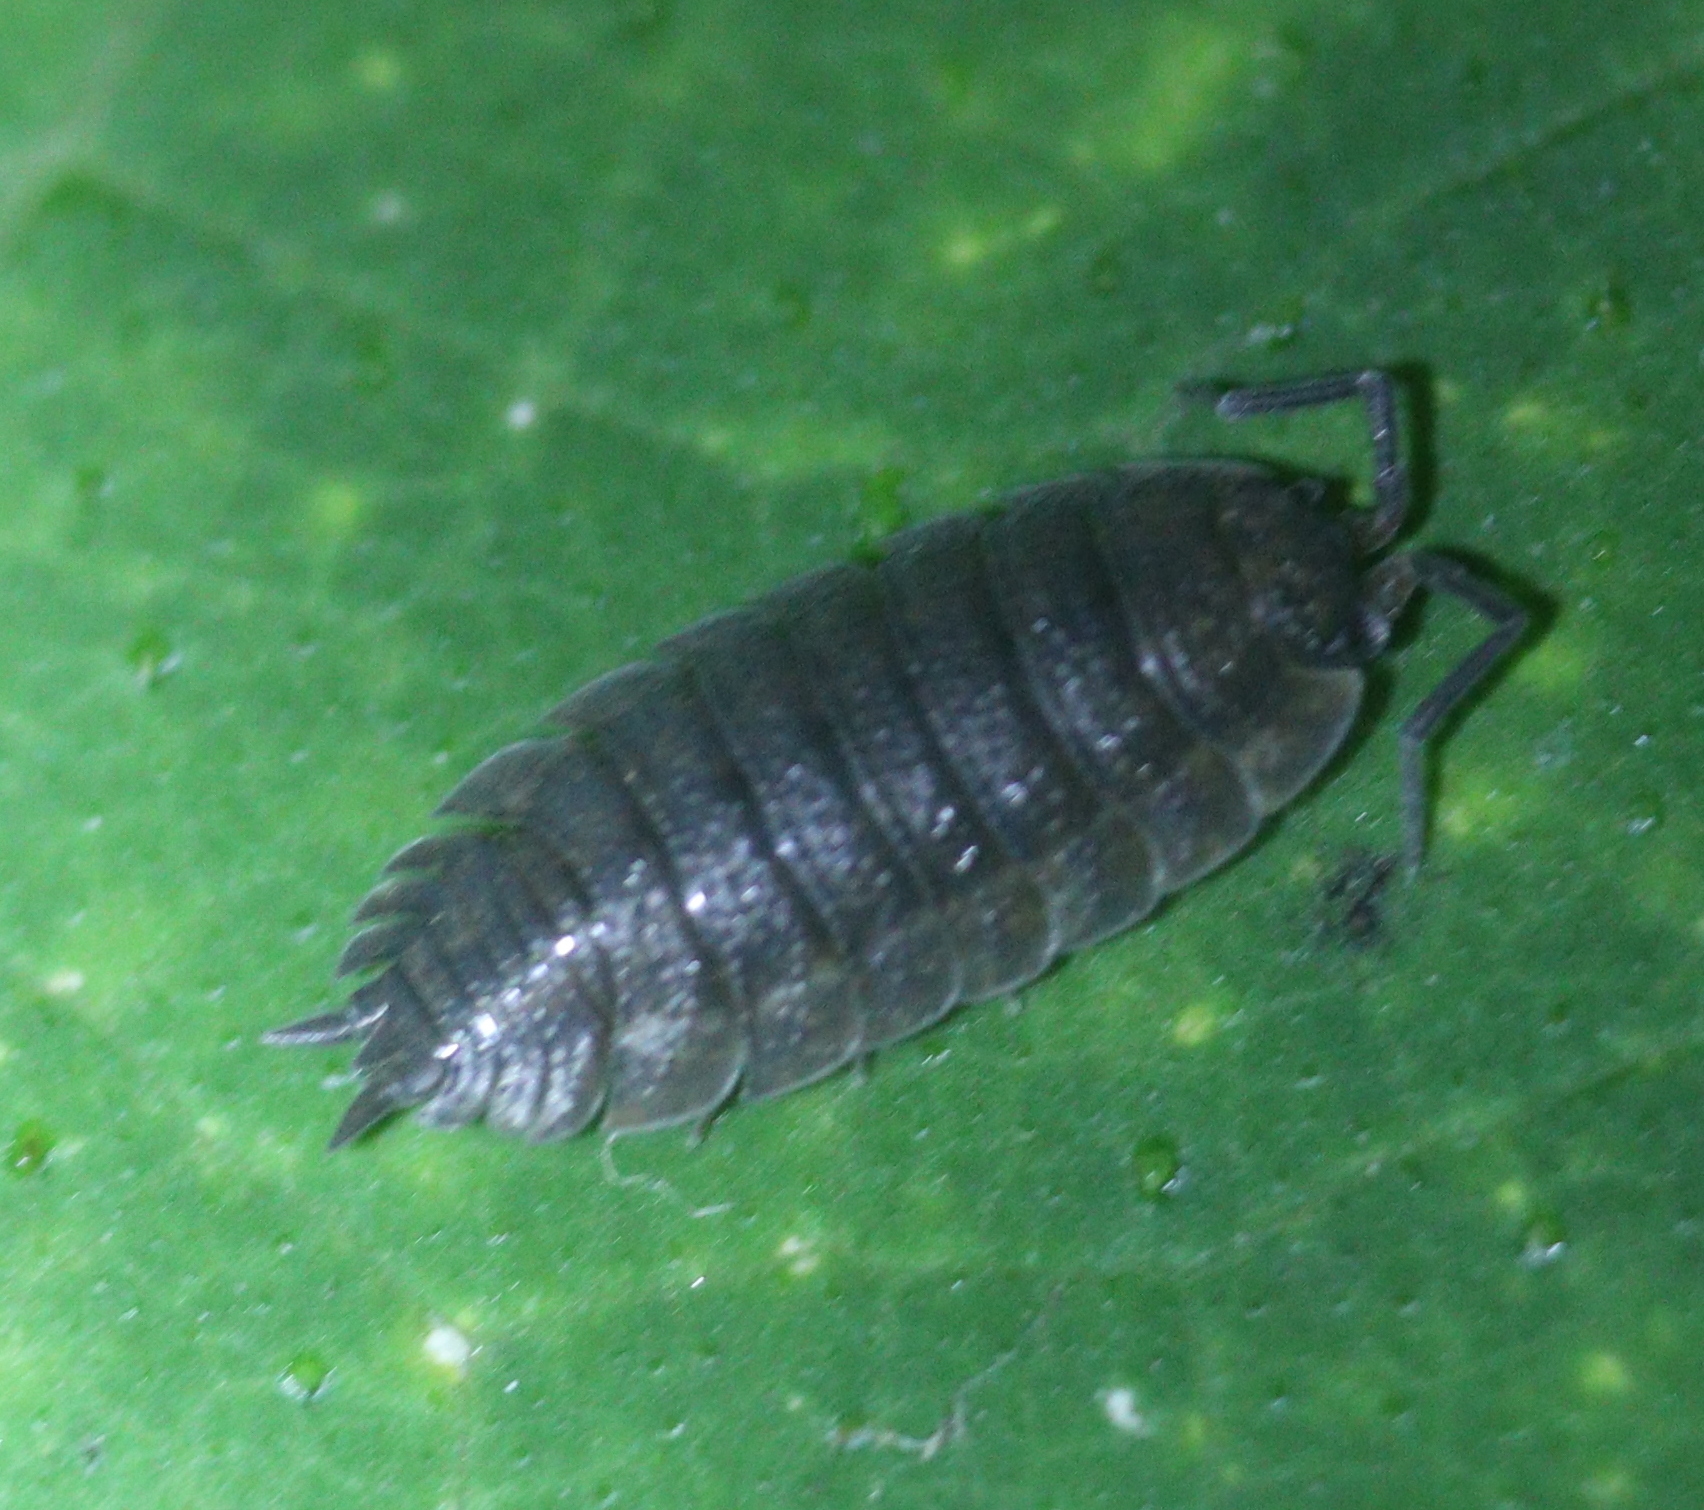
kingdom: Animalia
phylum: Arthropoda
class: Malacostraca
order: Isopoda
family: Porcellionidae
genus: Porcellio
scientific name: Porcellio scaber
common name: Common rough woodlouse
